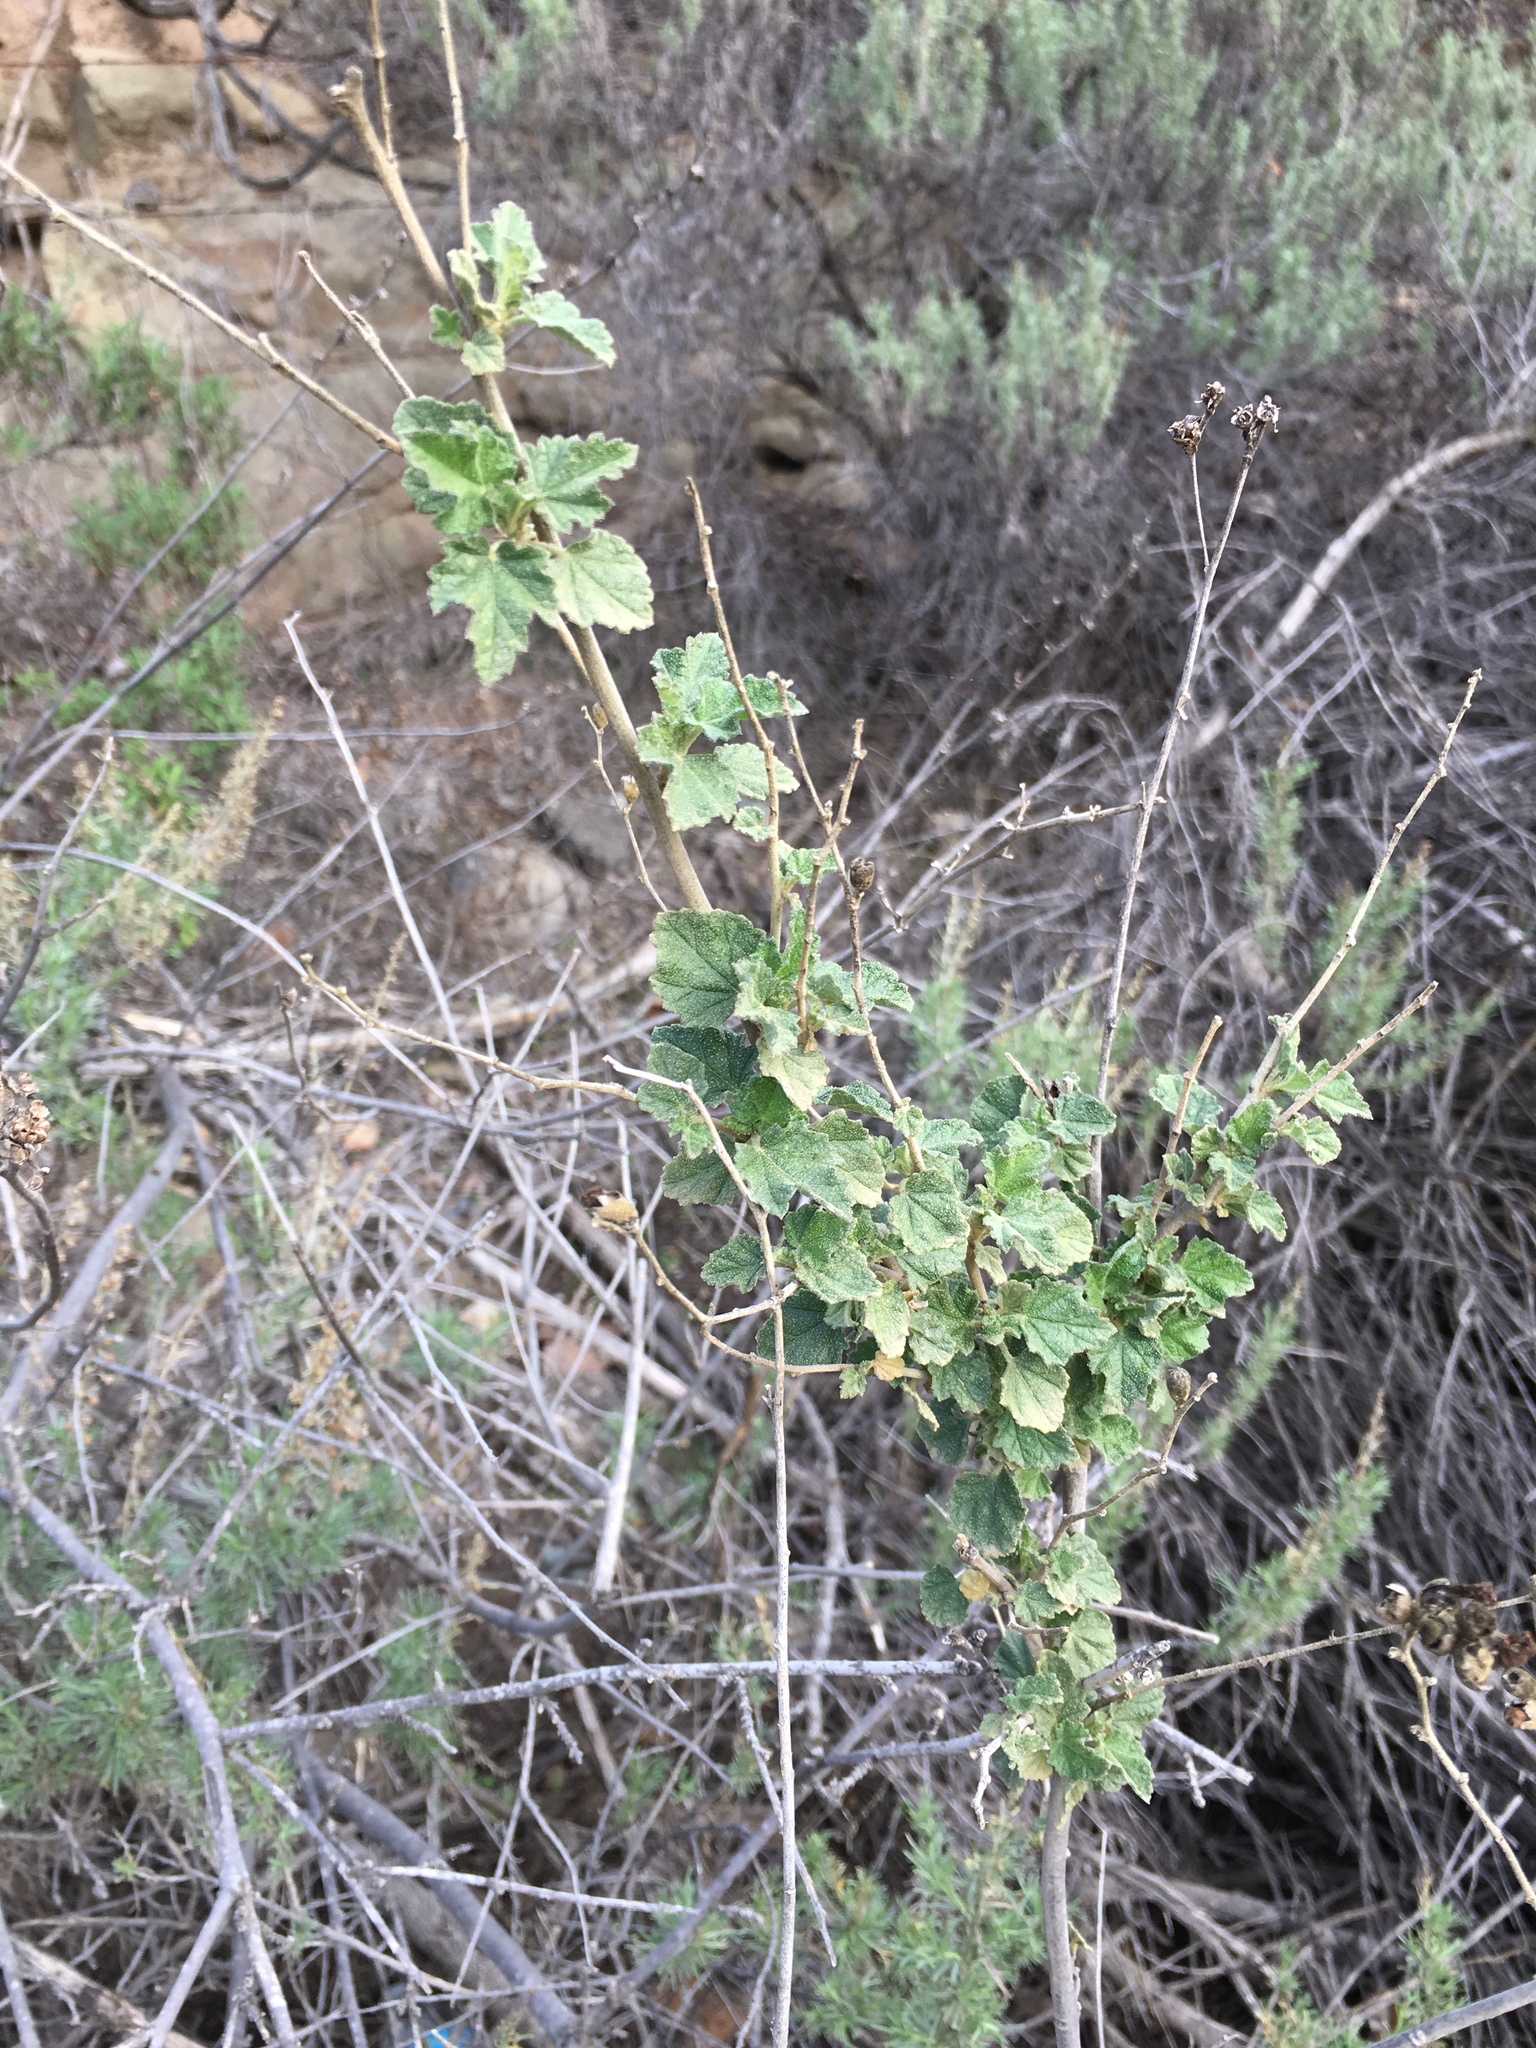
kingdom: Plantae
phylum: Tracheophyta
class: Magnoliopsida
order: Malvales
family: Malvaceae
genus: Malacothamnus
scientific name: Malacothamnus fasciculatus
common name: Sant cruz island bush-mallow
